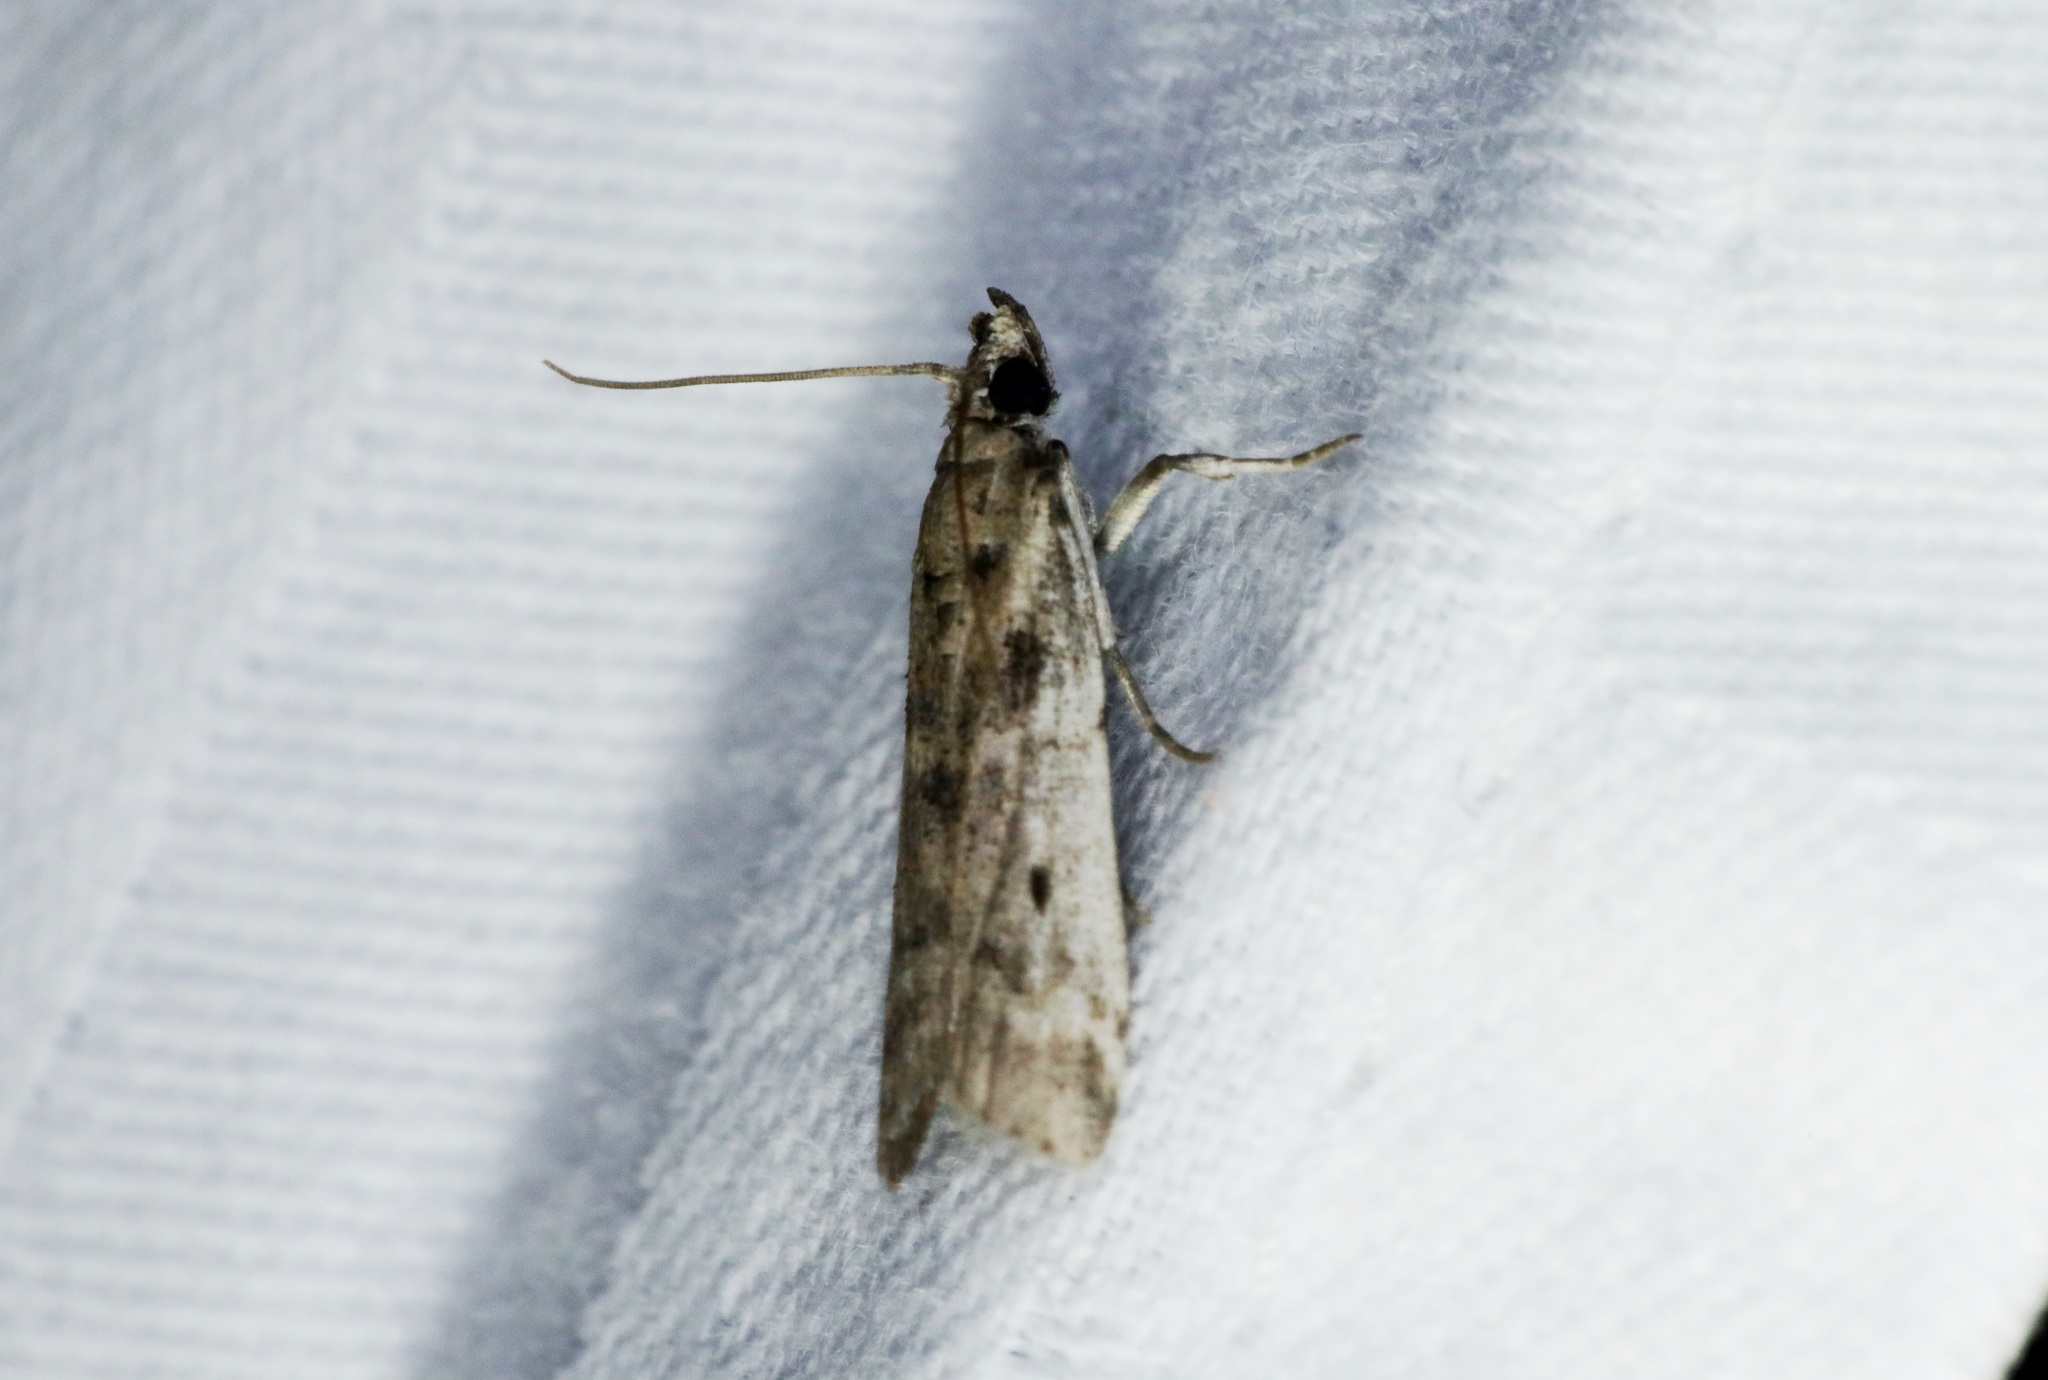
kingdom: Animalia
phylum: Arthropoda
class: Insecta
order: Lepidoptera
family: Pyralidae
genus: Vinicia
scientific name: Vinicia
